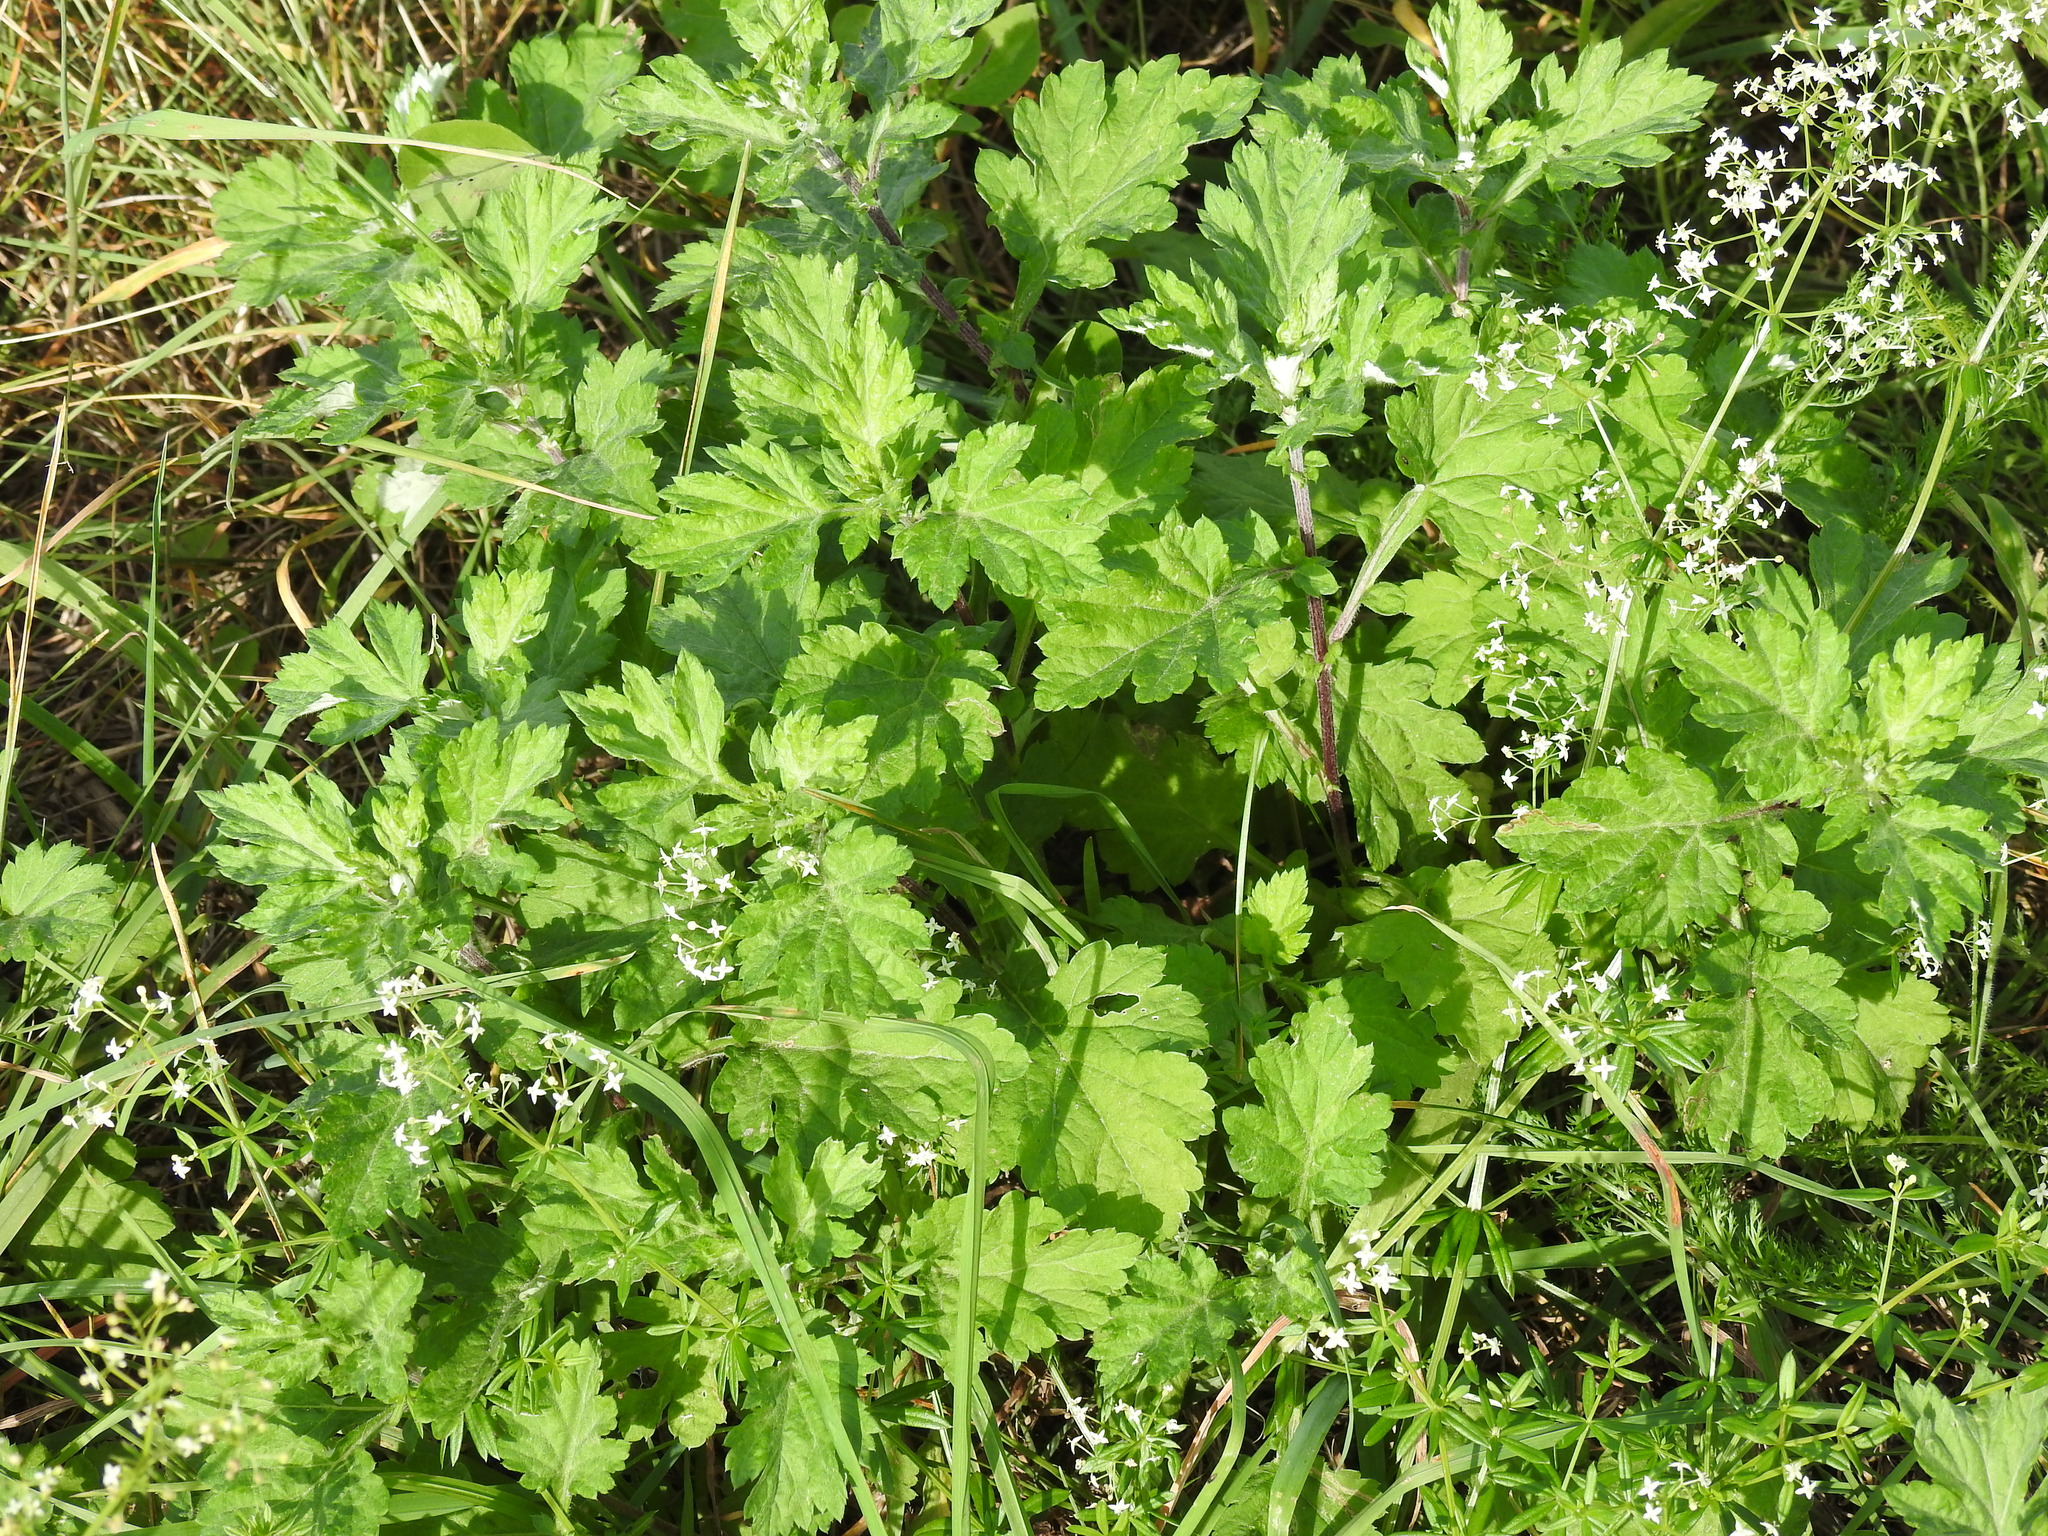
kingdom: Plantae
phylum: Tracheophyta
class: Magnoliopsida
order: Asterales
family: Asteraceae
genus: Artemisia
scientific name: Artemisia vulgaris
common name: Mugwort
